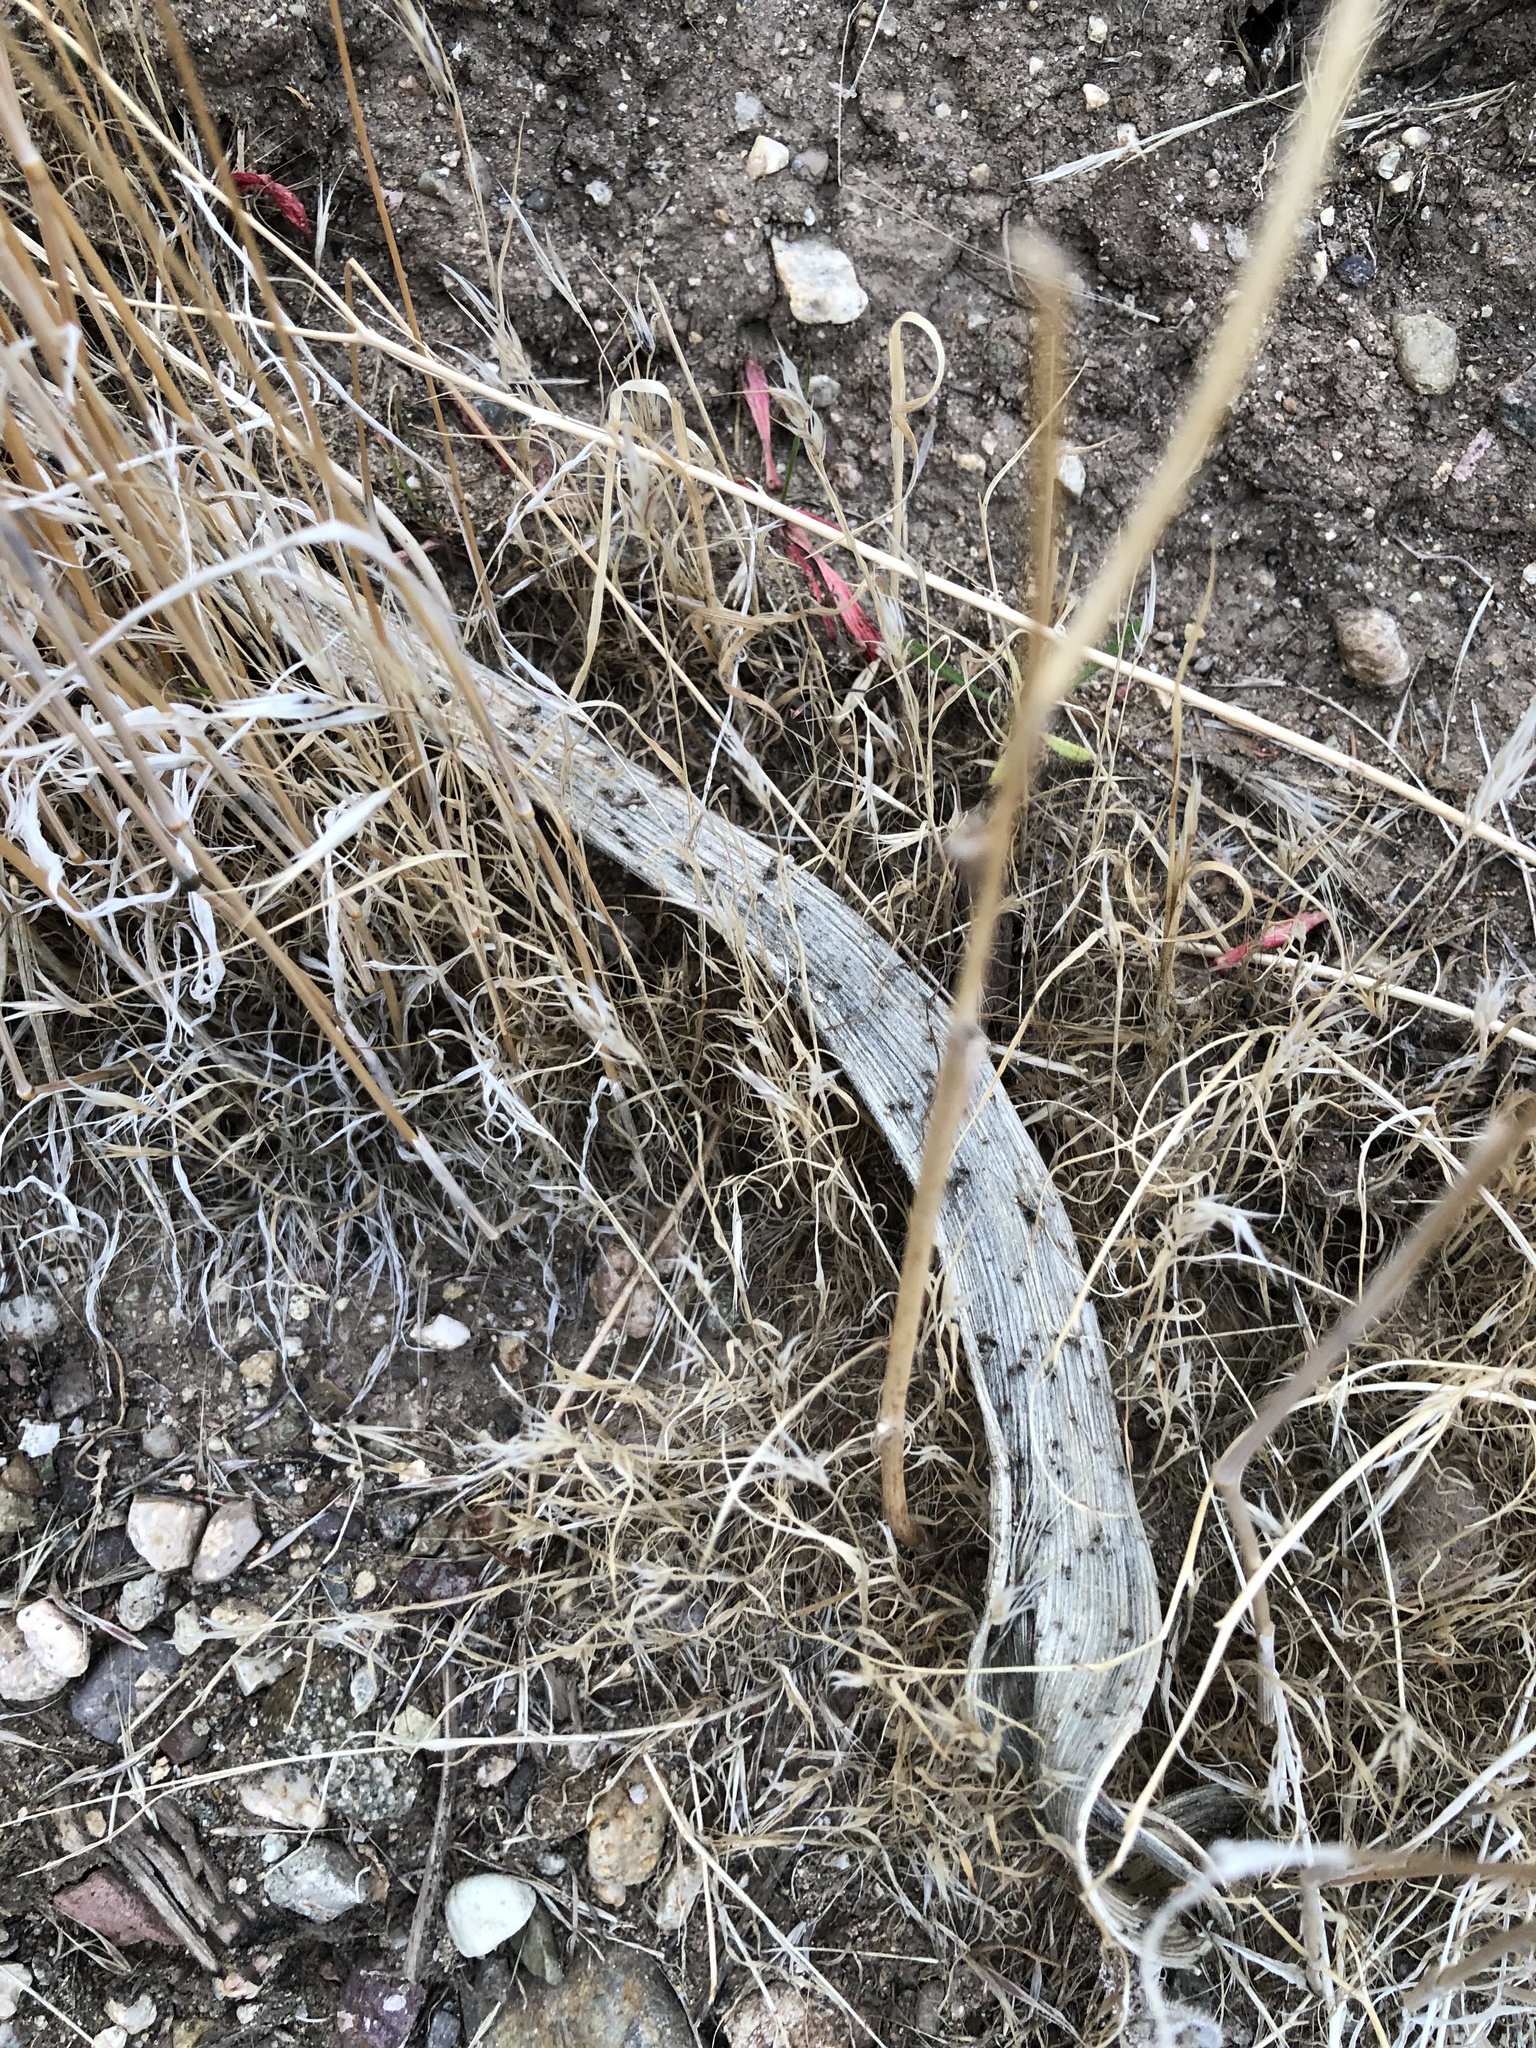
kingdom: Plantae
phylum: Tracheophyta
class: Magnoliopsida
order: Solanales
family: Convolvulaceae
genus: Cuscuta
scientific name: Cuscuta californica
